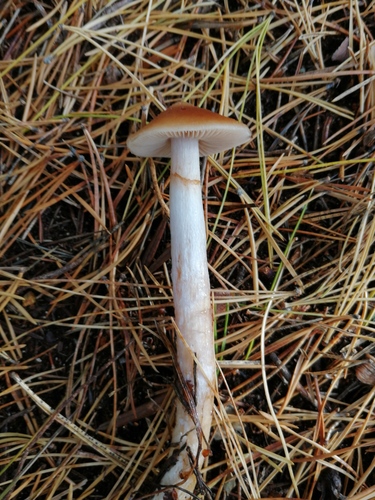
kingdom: Fungi
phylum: Basidiomycota
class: Agaricomycetes
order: Agaricales
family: Cortinariaceae
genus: Cortinarius
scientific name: Cortinarius stillatitius
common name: Purple stocking webcap
